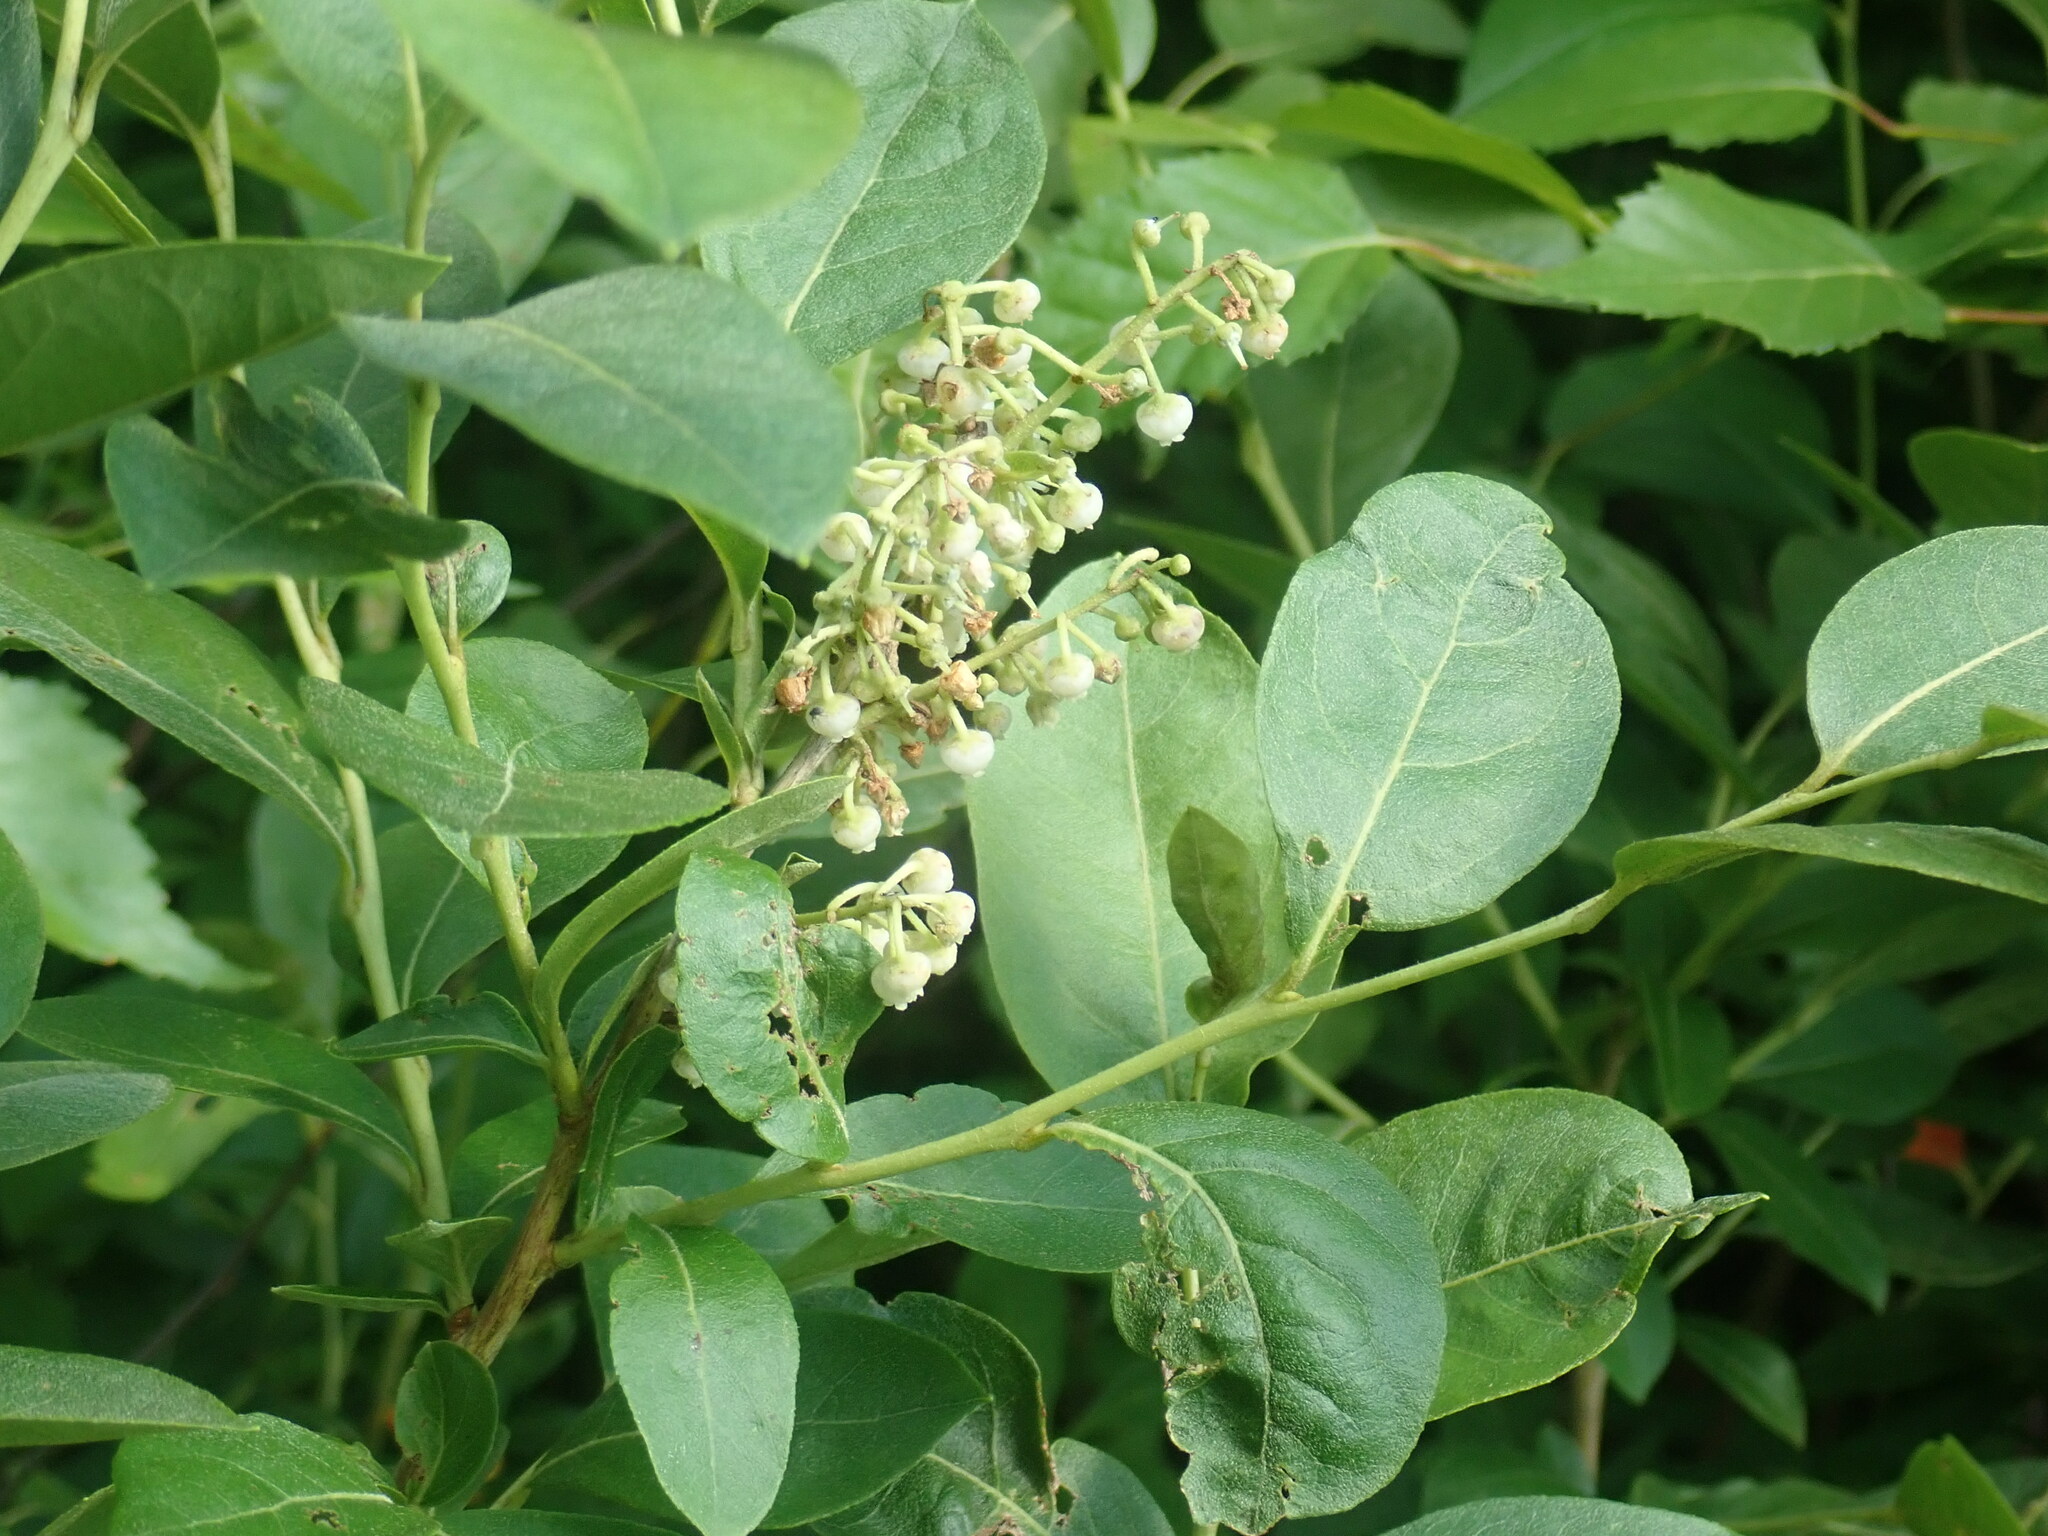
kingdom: Plantae
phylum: Tracheophyta
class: Magnoliopsida
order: Ericales
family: Ericaceae
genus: Lyonia
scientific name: Lyonia ligustrina
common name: Maleberry
